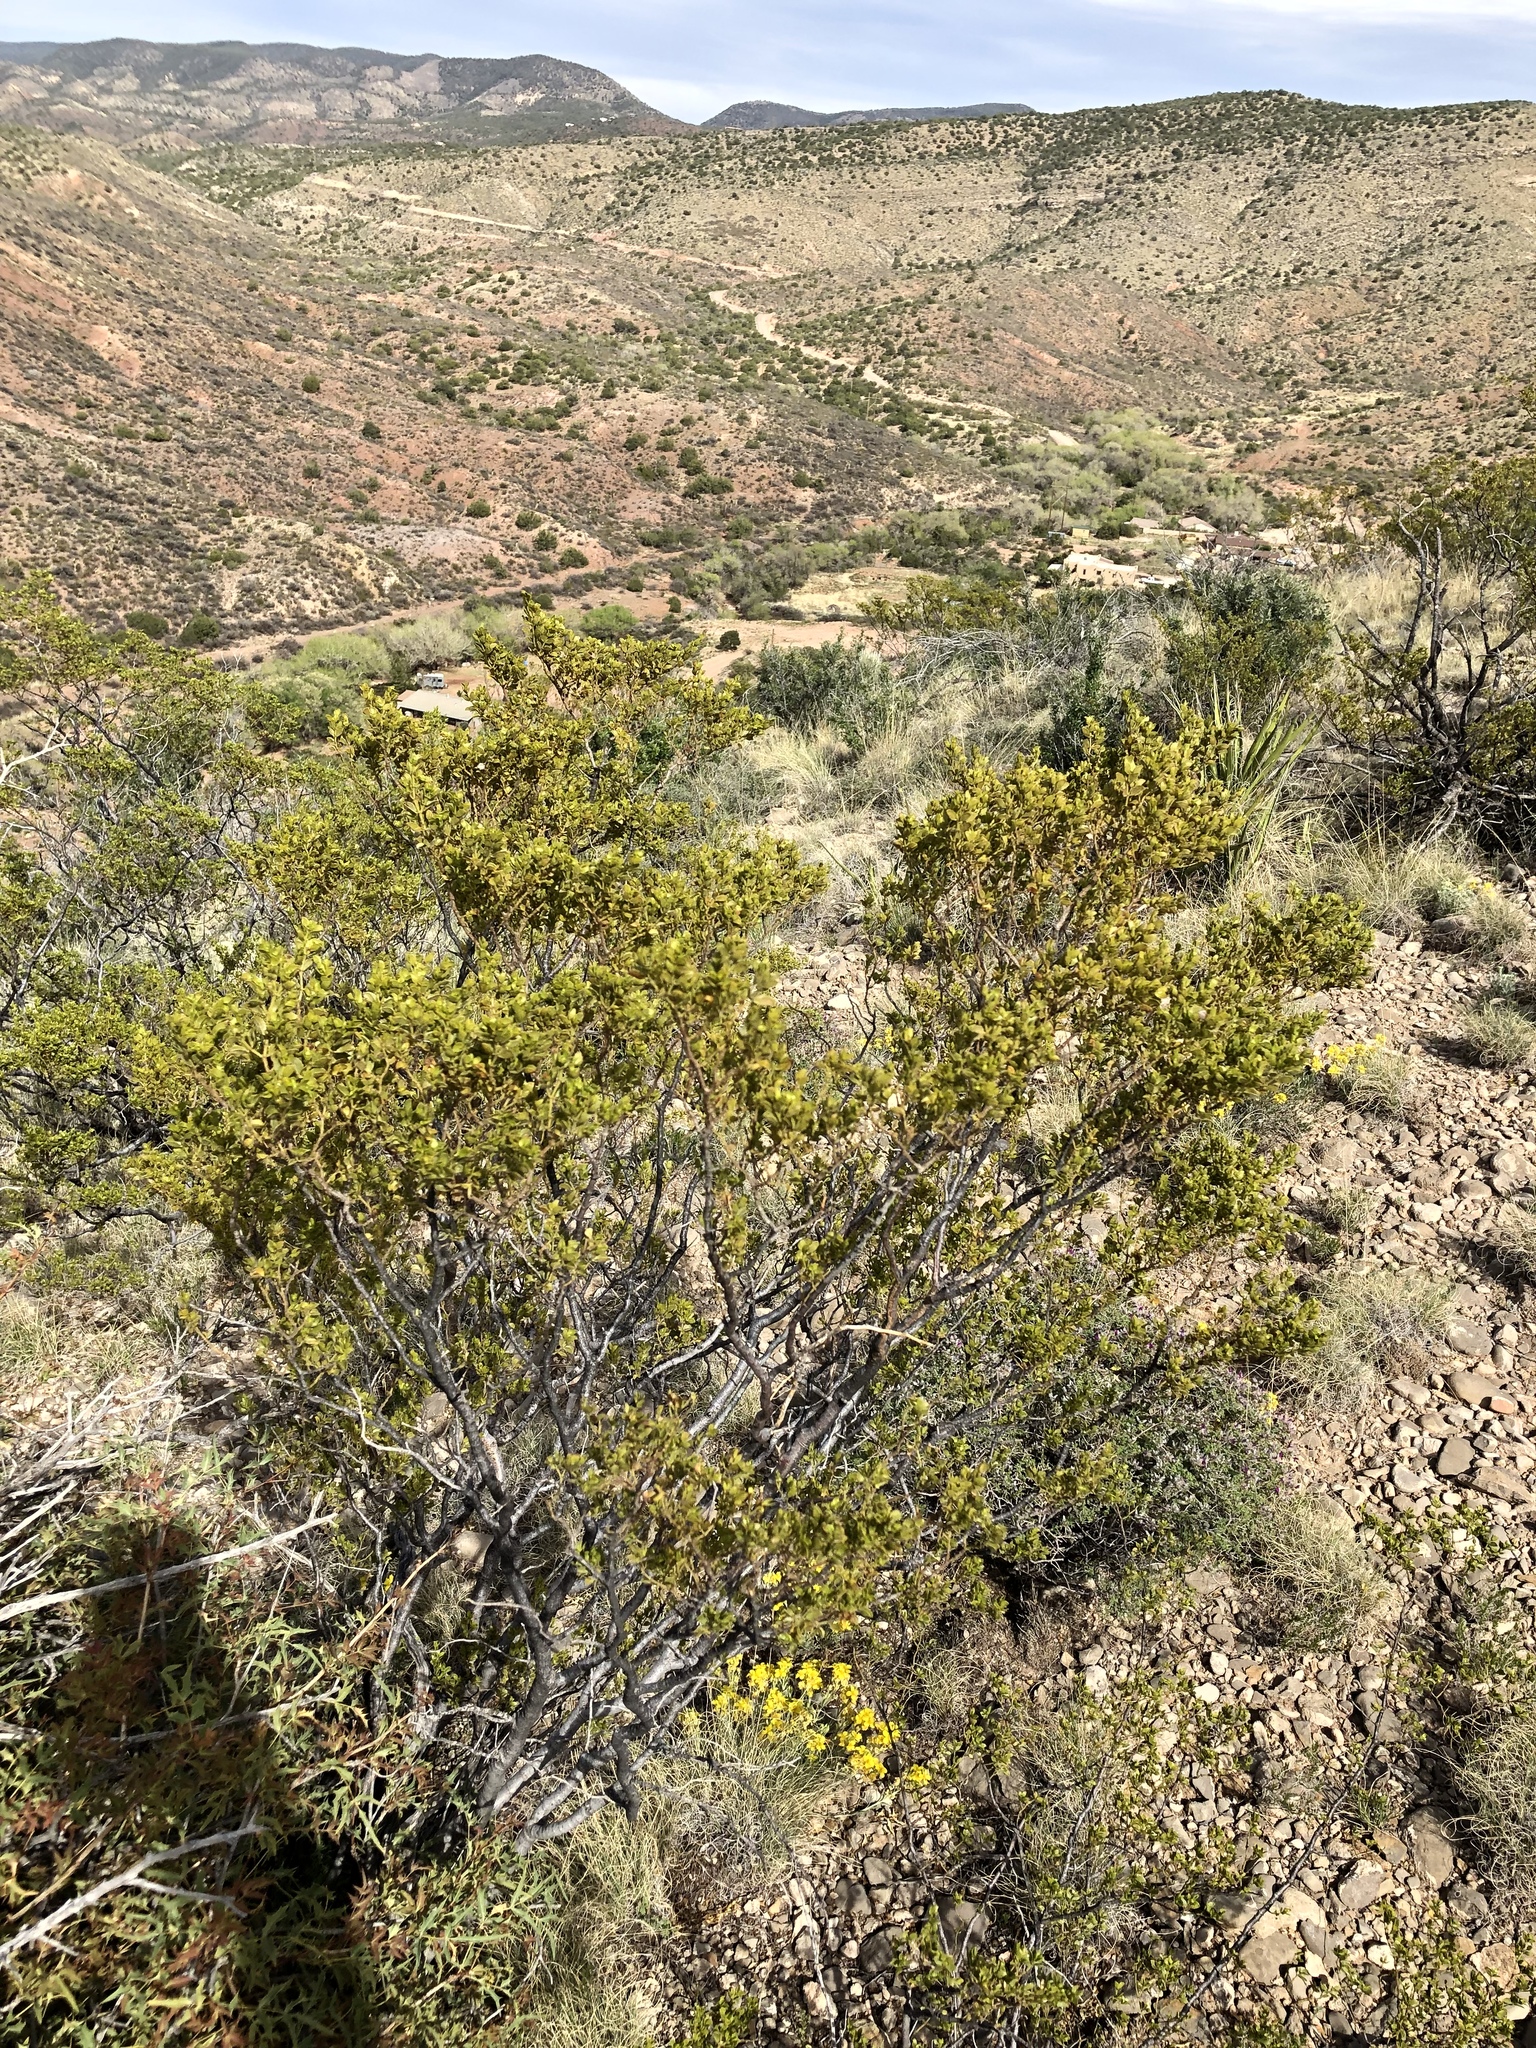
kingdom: Plantae
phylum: Tracheophyta
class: Magnoliopsida
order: Zygophyllales
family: Zygophyllaceae
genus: Larrea
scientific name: Larrea tridentata
